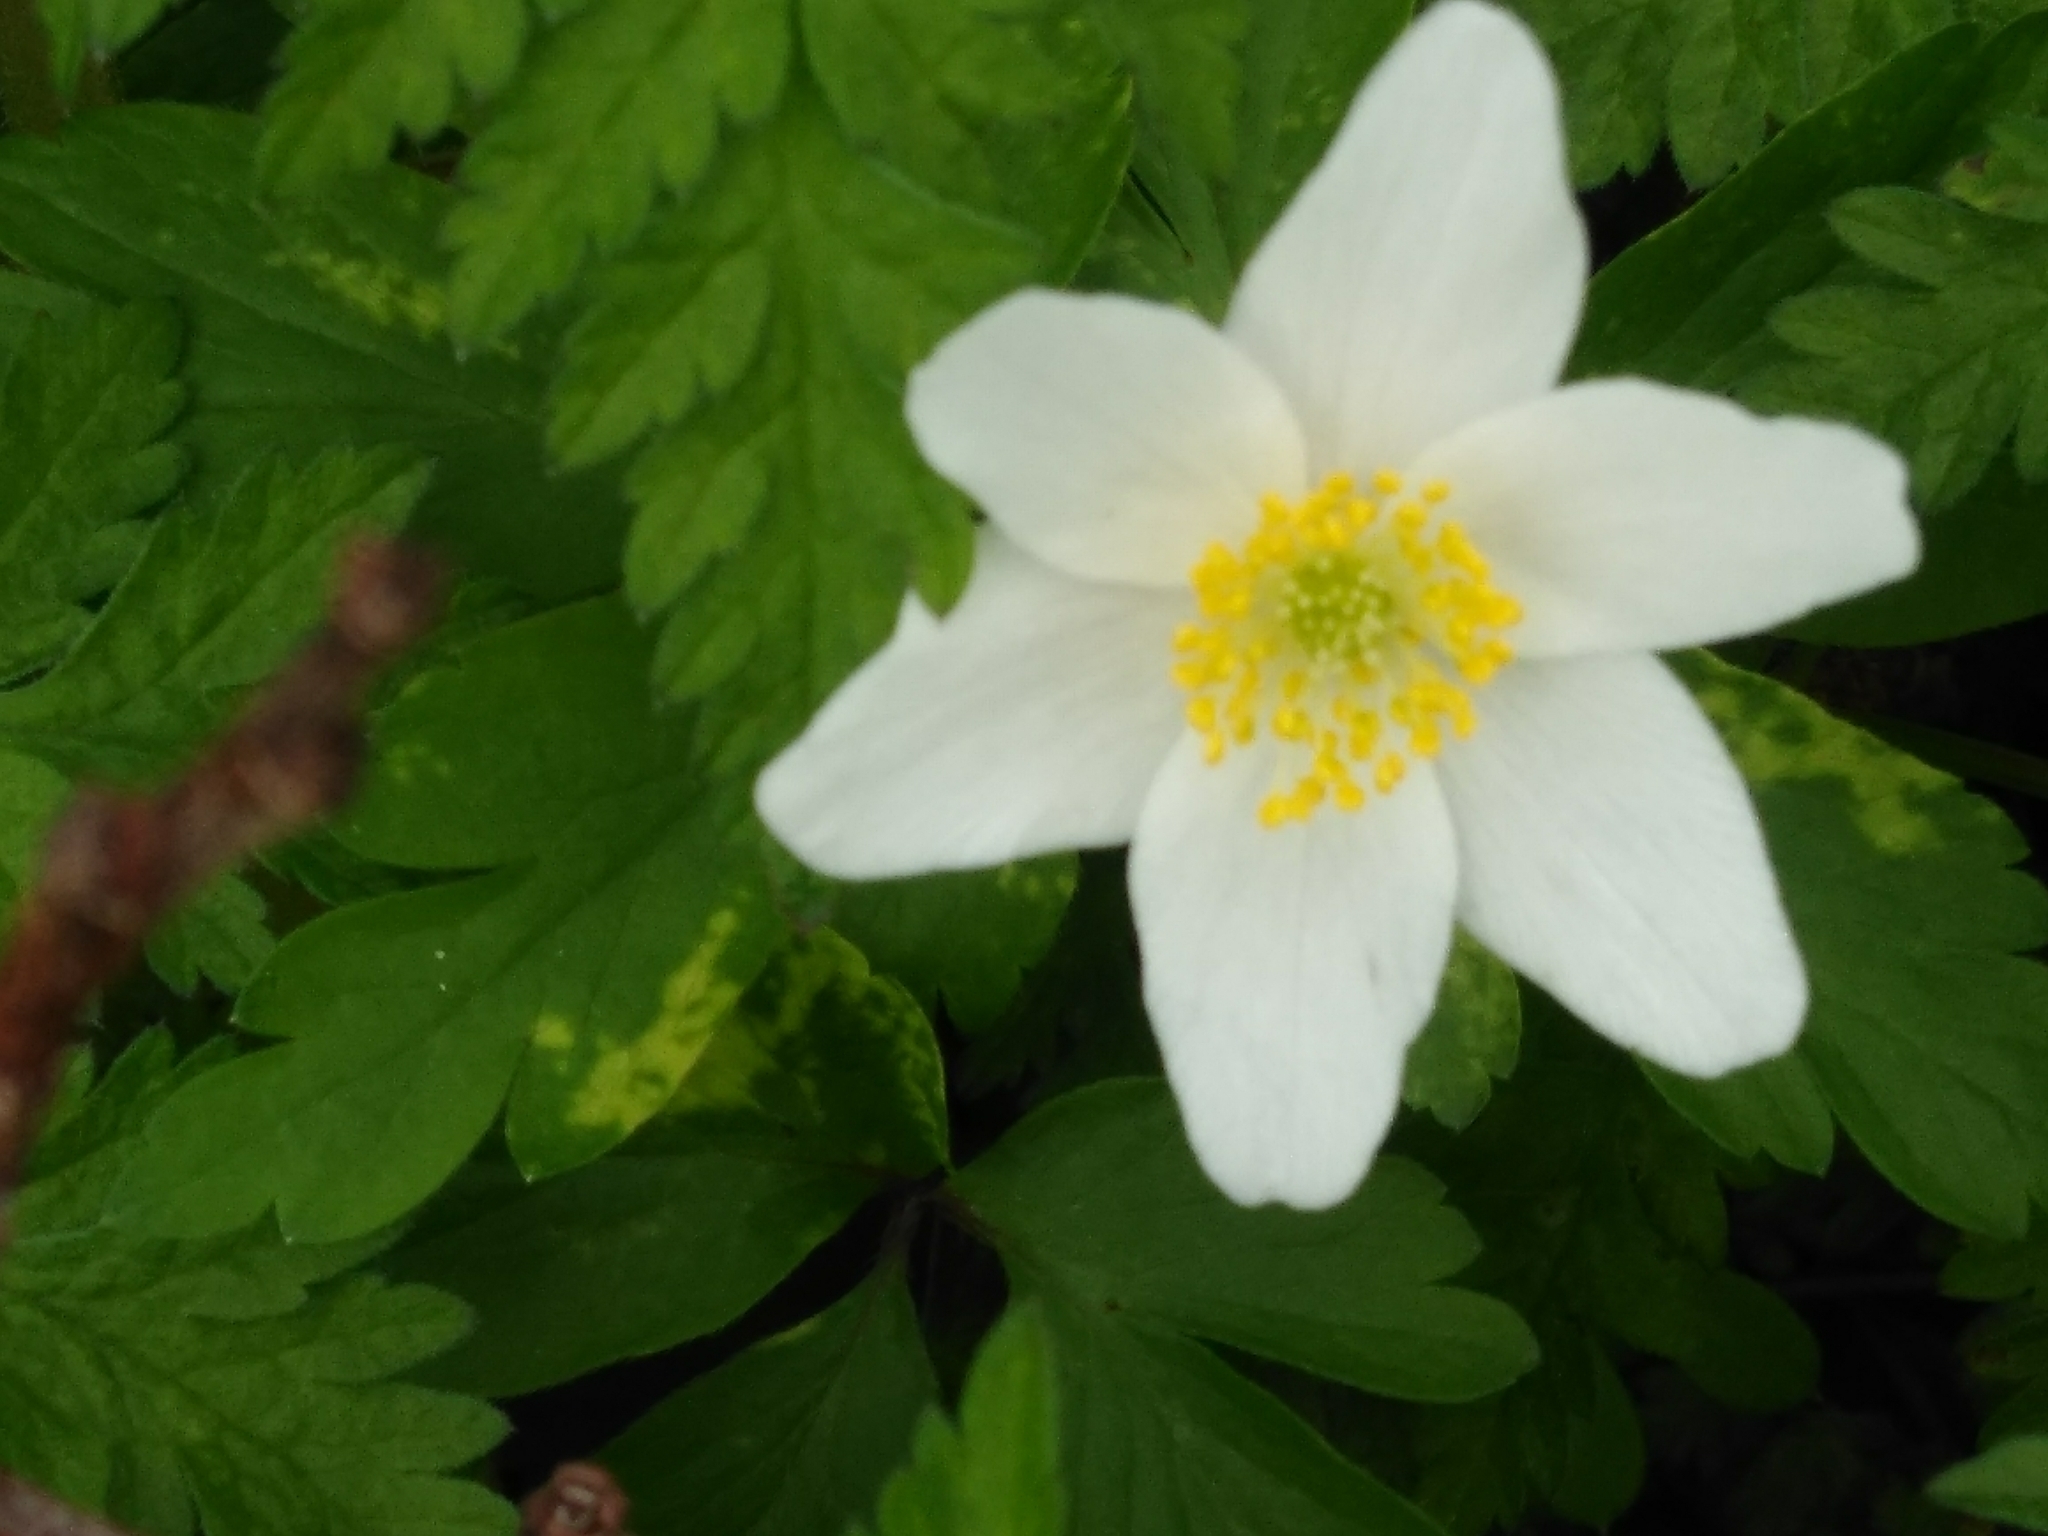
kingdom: Plantae
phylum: Tracheophyta
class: Magnoliopsida
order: Ranunculales
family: Ranunculaceae
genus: Anemone
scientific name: Anemone nemorosa
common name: Wood anemone
